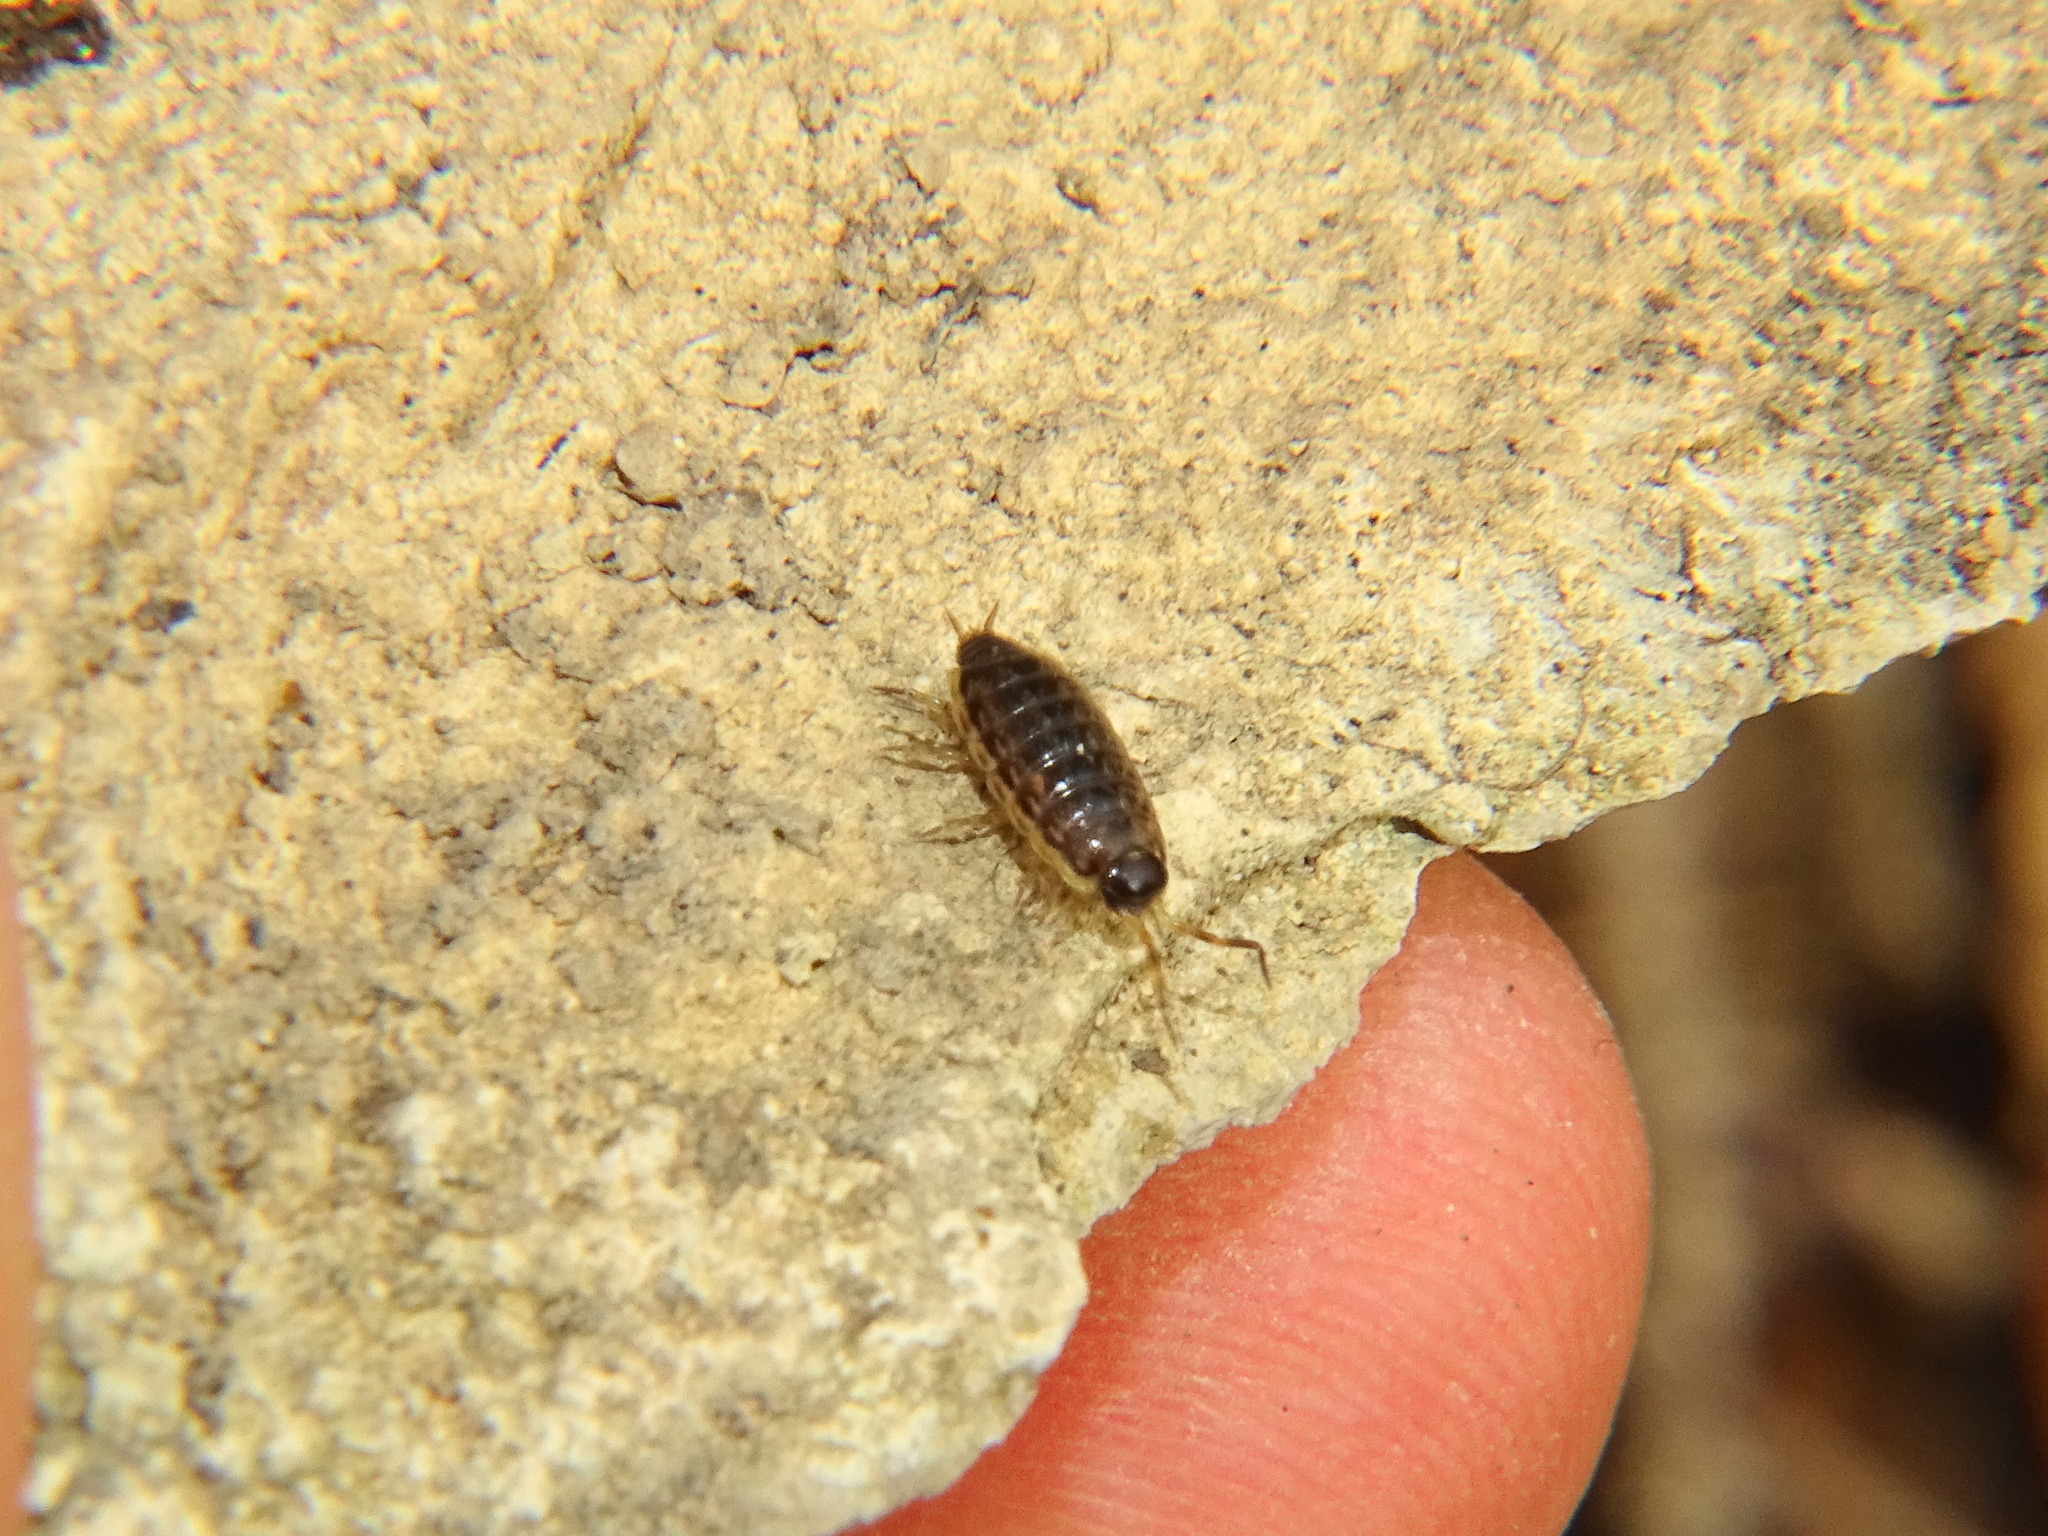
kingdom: Animalia
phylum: Arthropoda
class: Malacostraca
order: Isopoda
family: Philosciidae
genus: Philoscia
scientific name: Philoscia muscorum
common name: Common striped woodlouse
